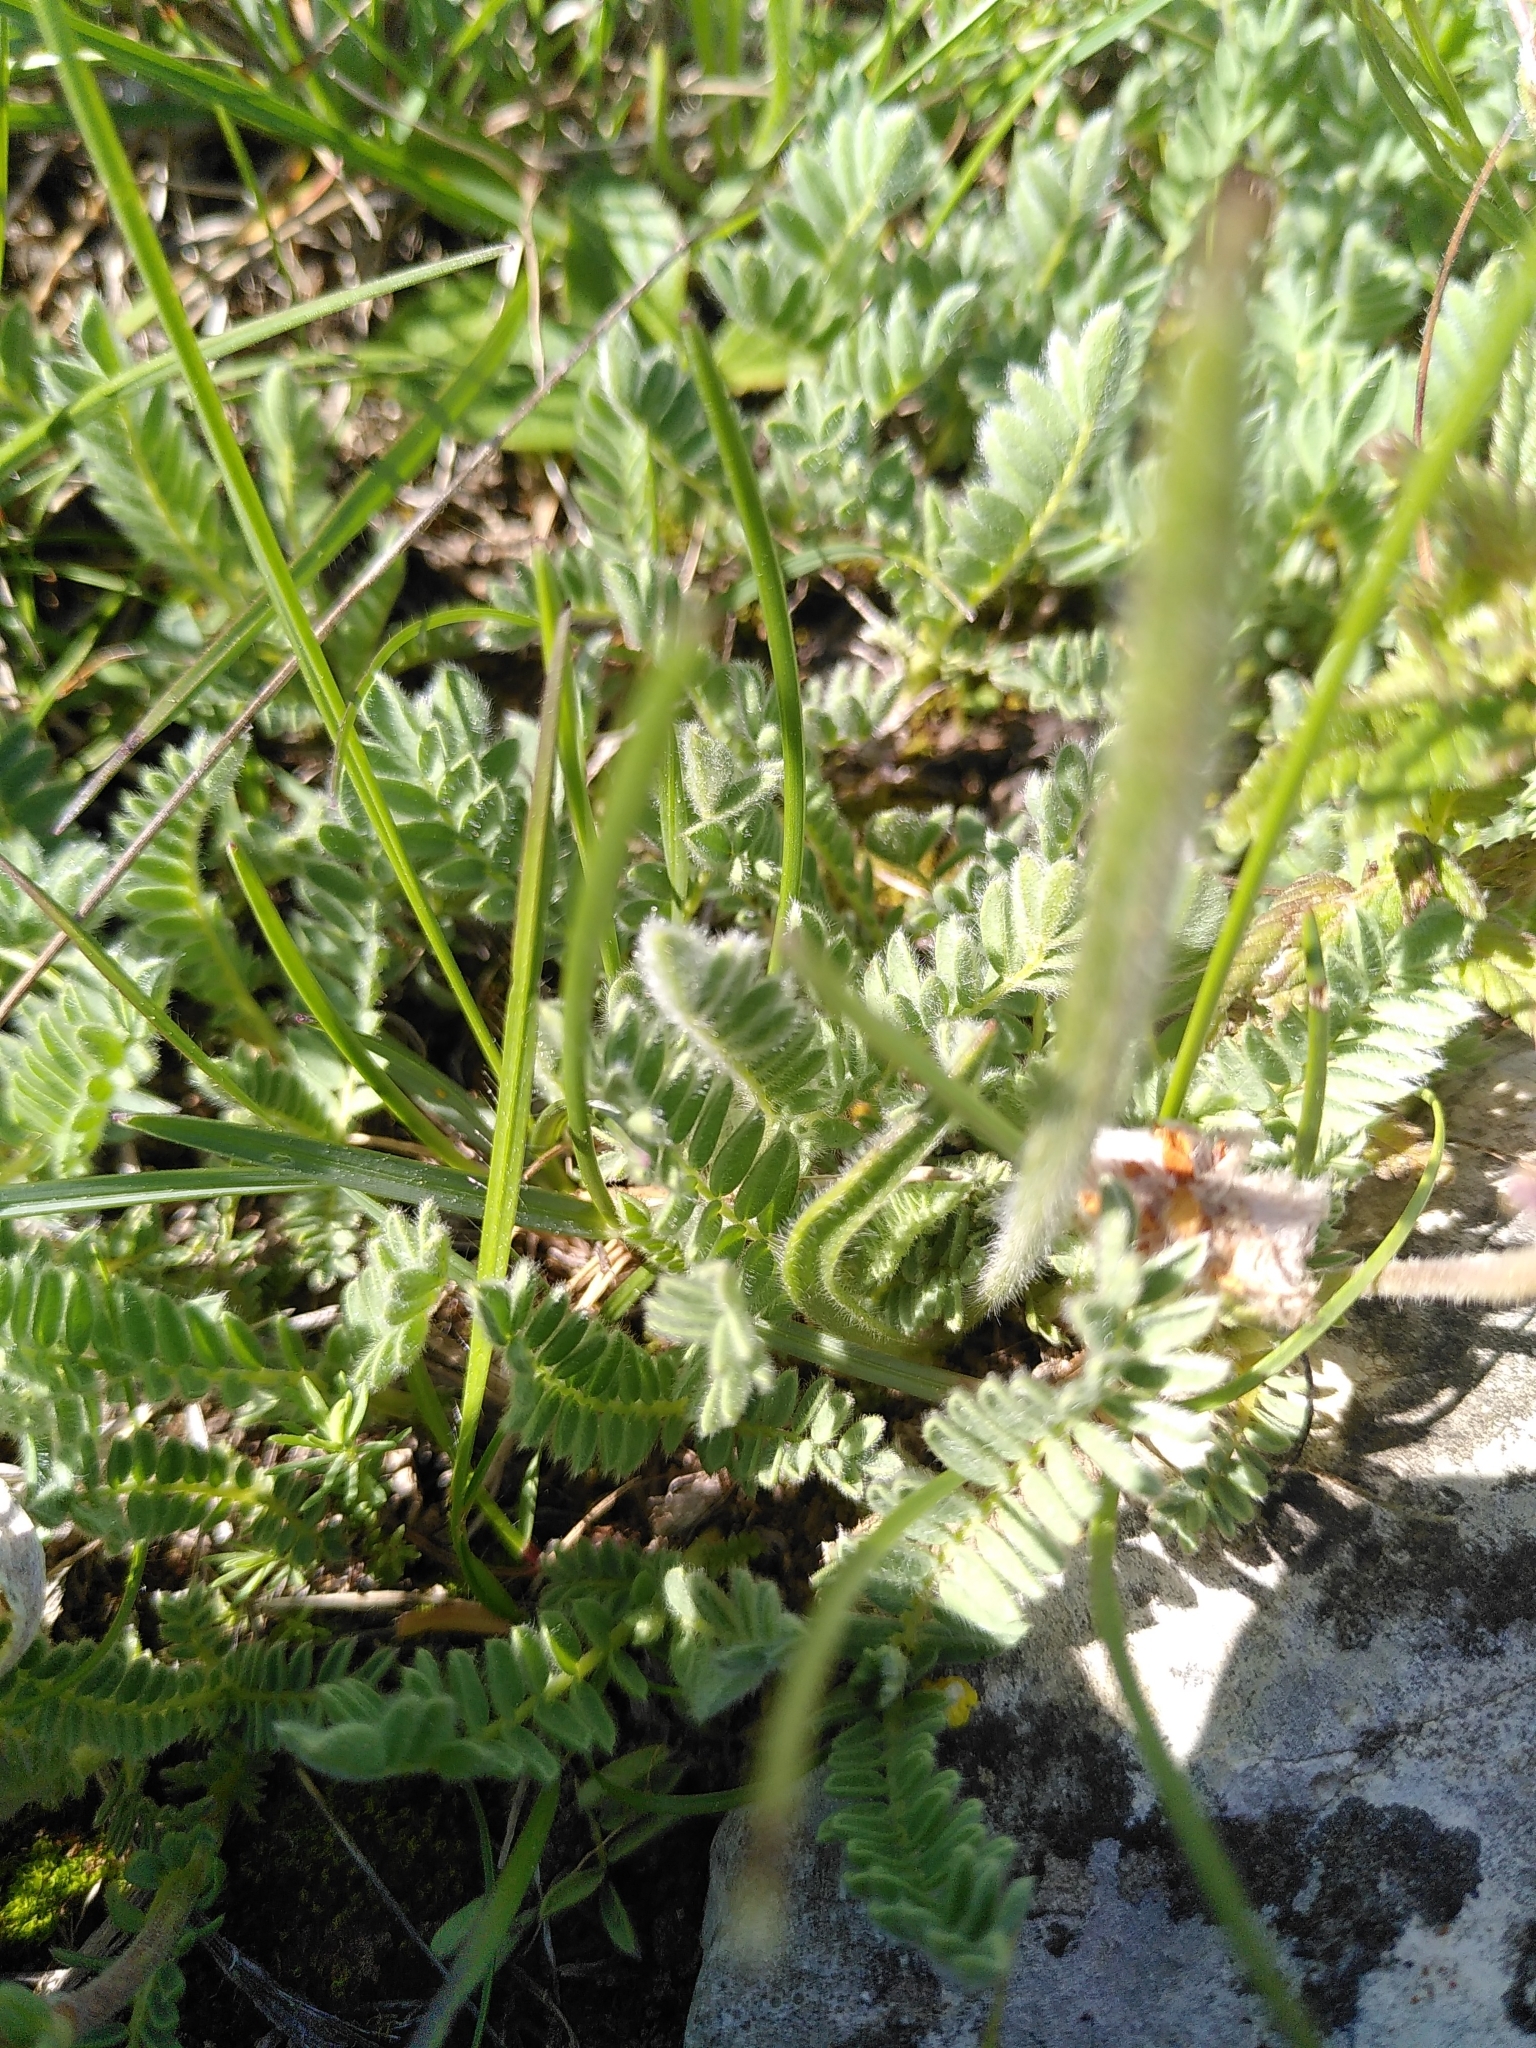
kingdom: Plantae
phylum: Tracheophyta
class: Magnoliopsida
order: Fabales
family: Fabaceae
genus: Anthyllis
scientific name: Anthyllis montana
